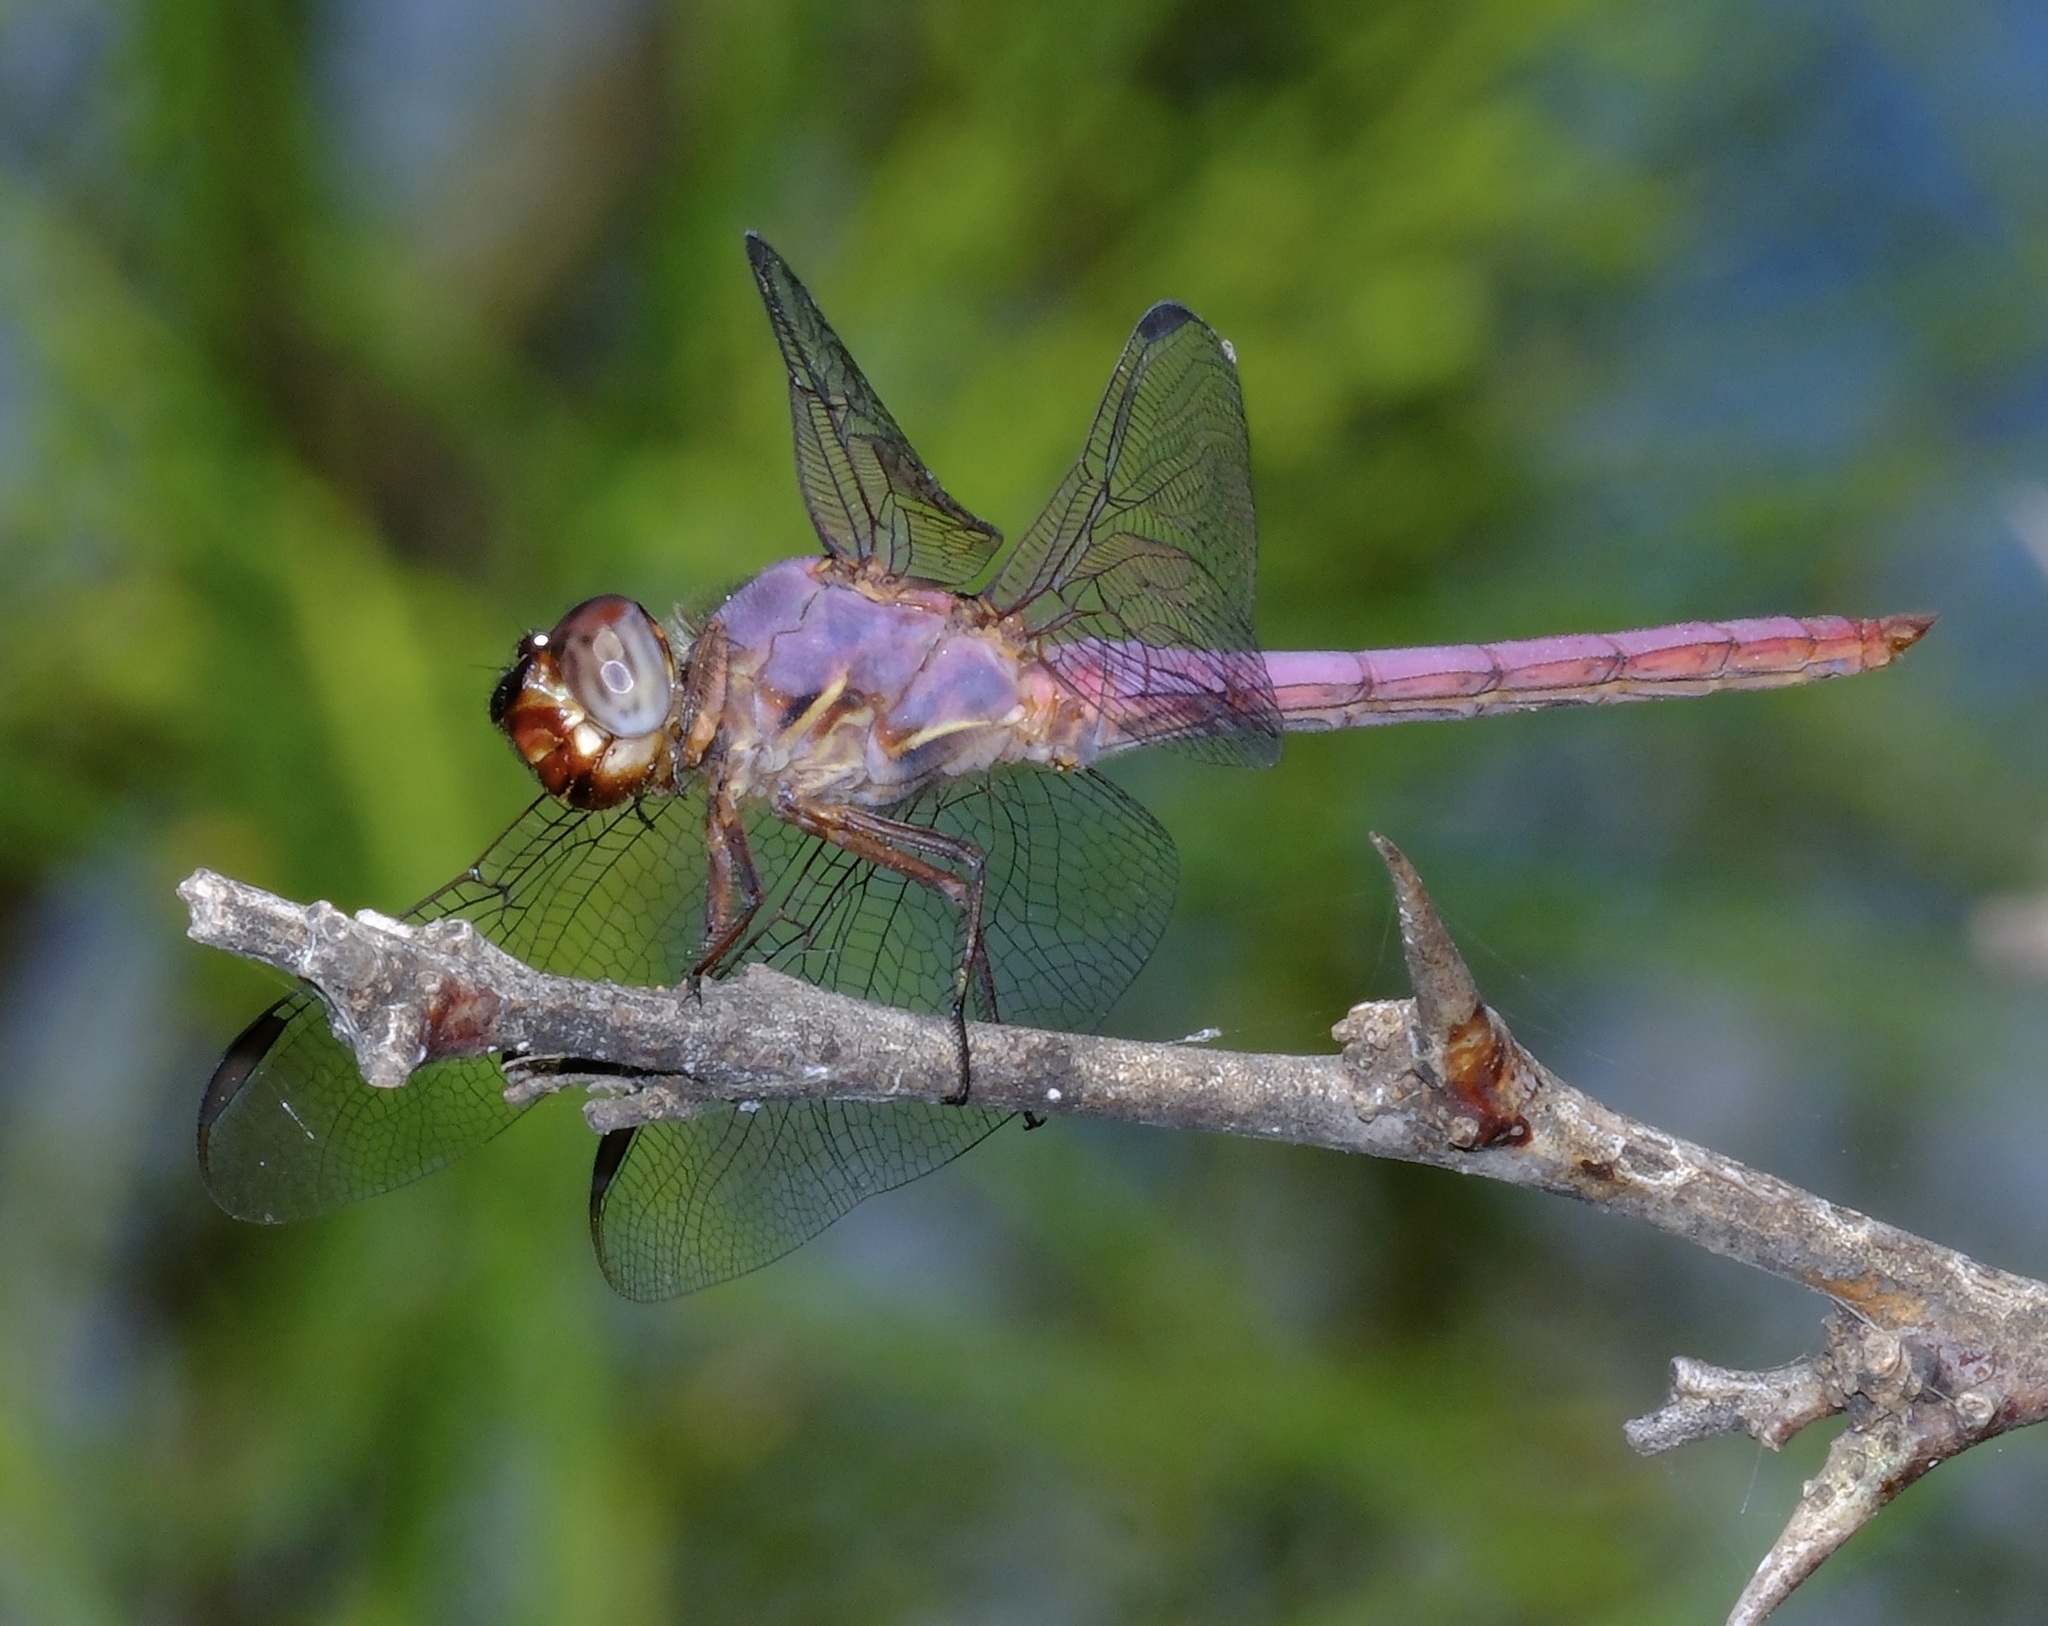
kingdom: Animalia
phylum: Arthropoda
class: Insecta
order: Odonata
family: Libellulidae
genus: Orthemis
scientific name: Orthemis ferruginea
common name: Roseate skimmer
